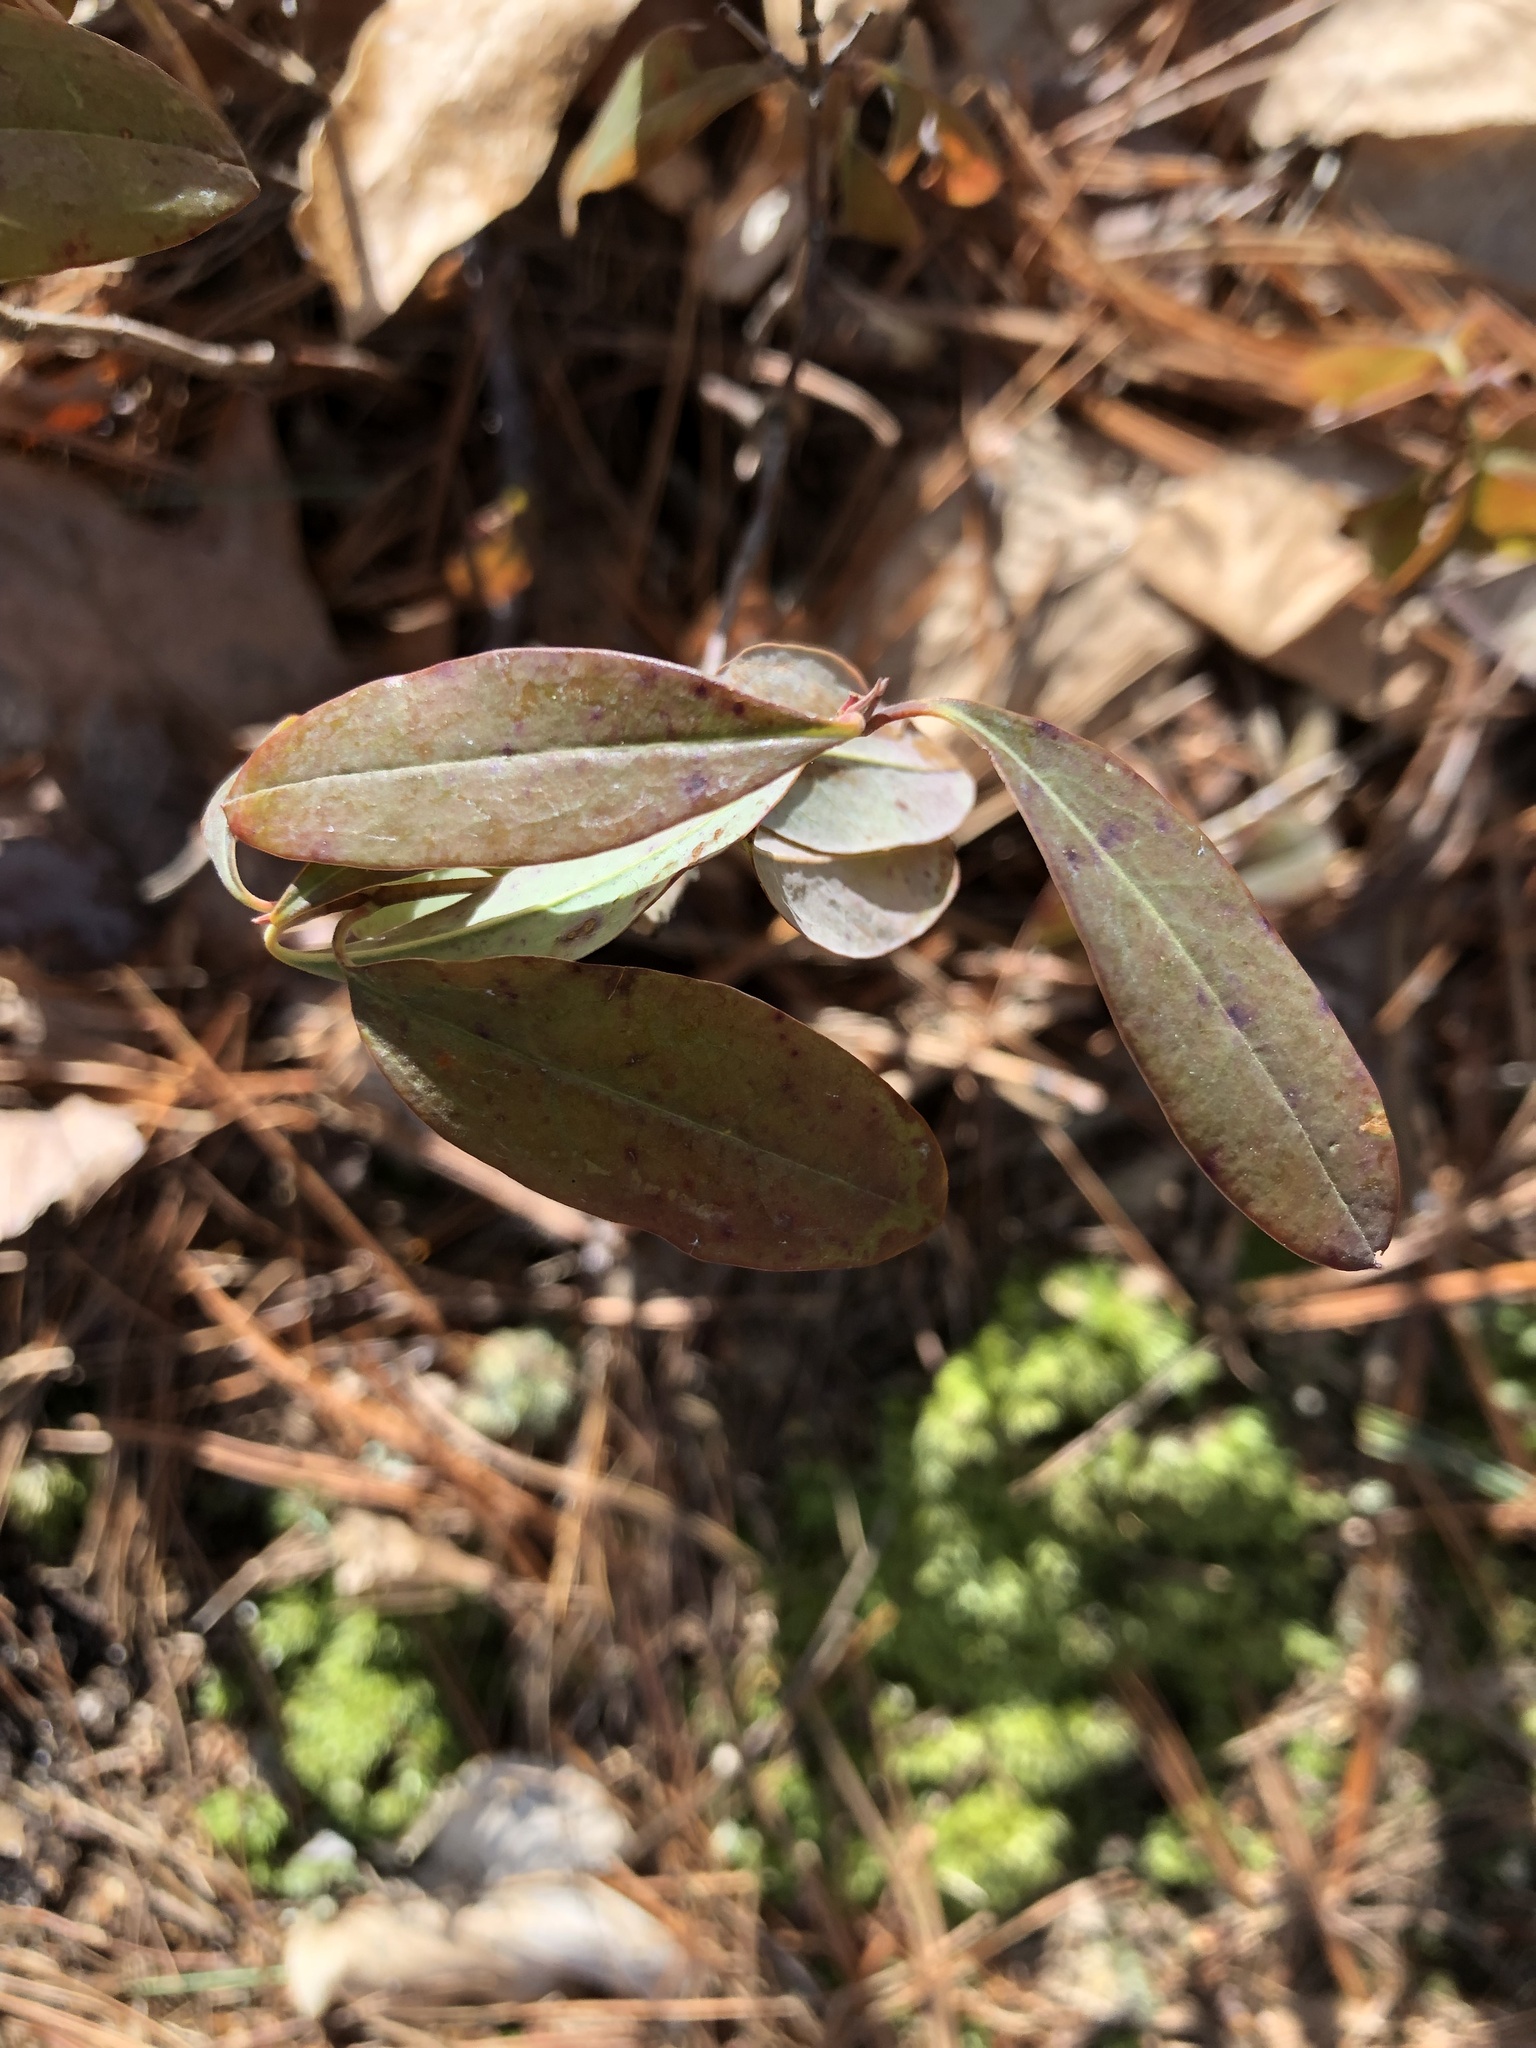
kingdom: Plantae
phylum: Tracheophyta
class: Magnoliopsida
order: Ericales
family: Ericaceae
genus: Kalmia
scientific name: Kalmia angustifolia
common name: Sheep-laurel
